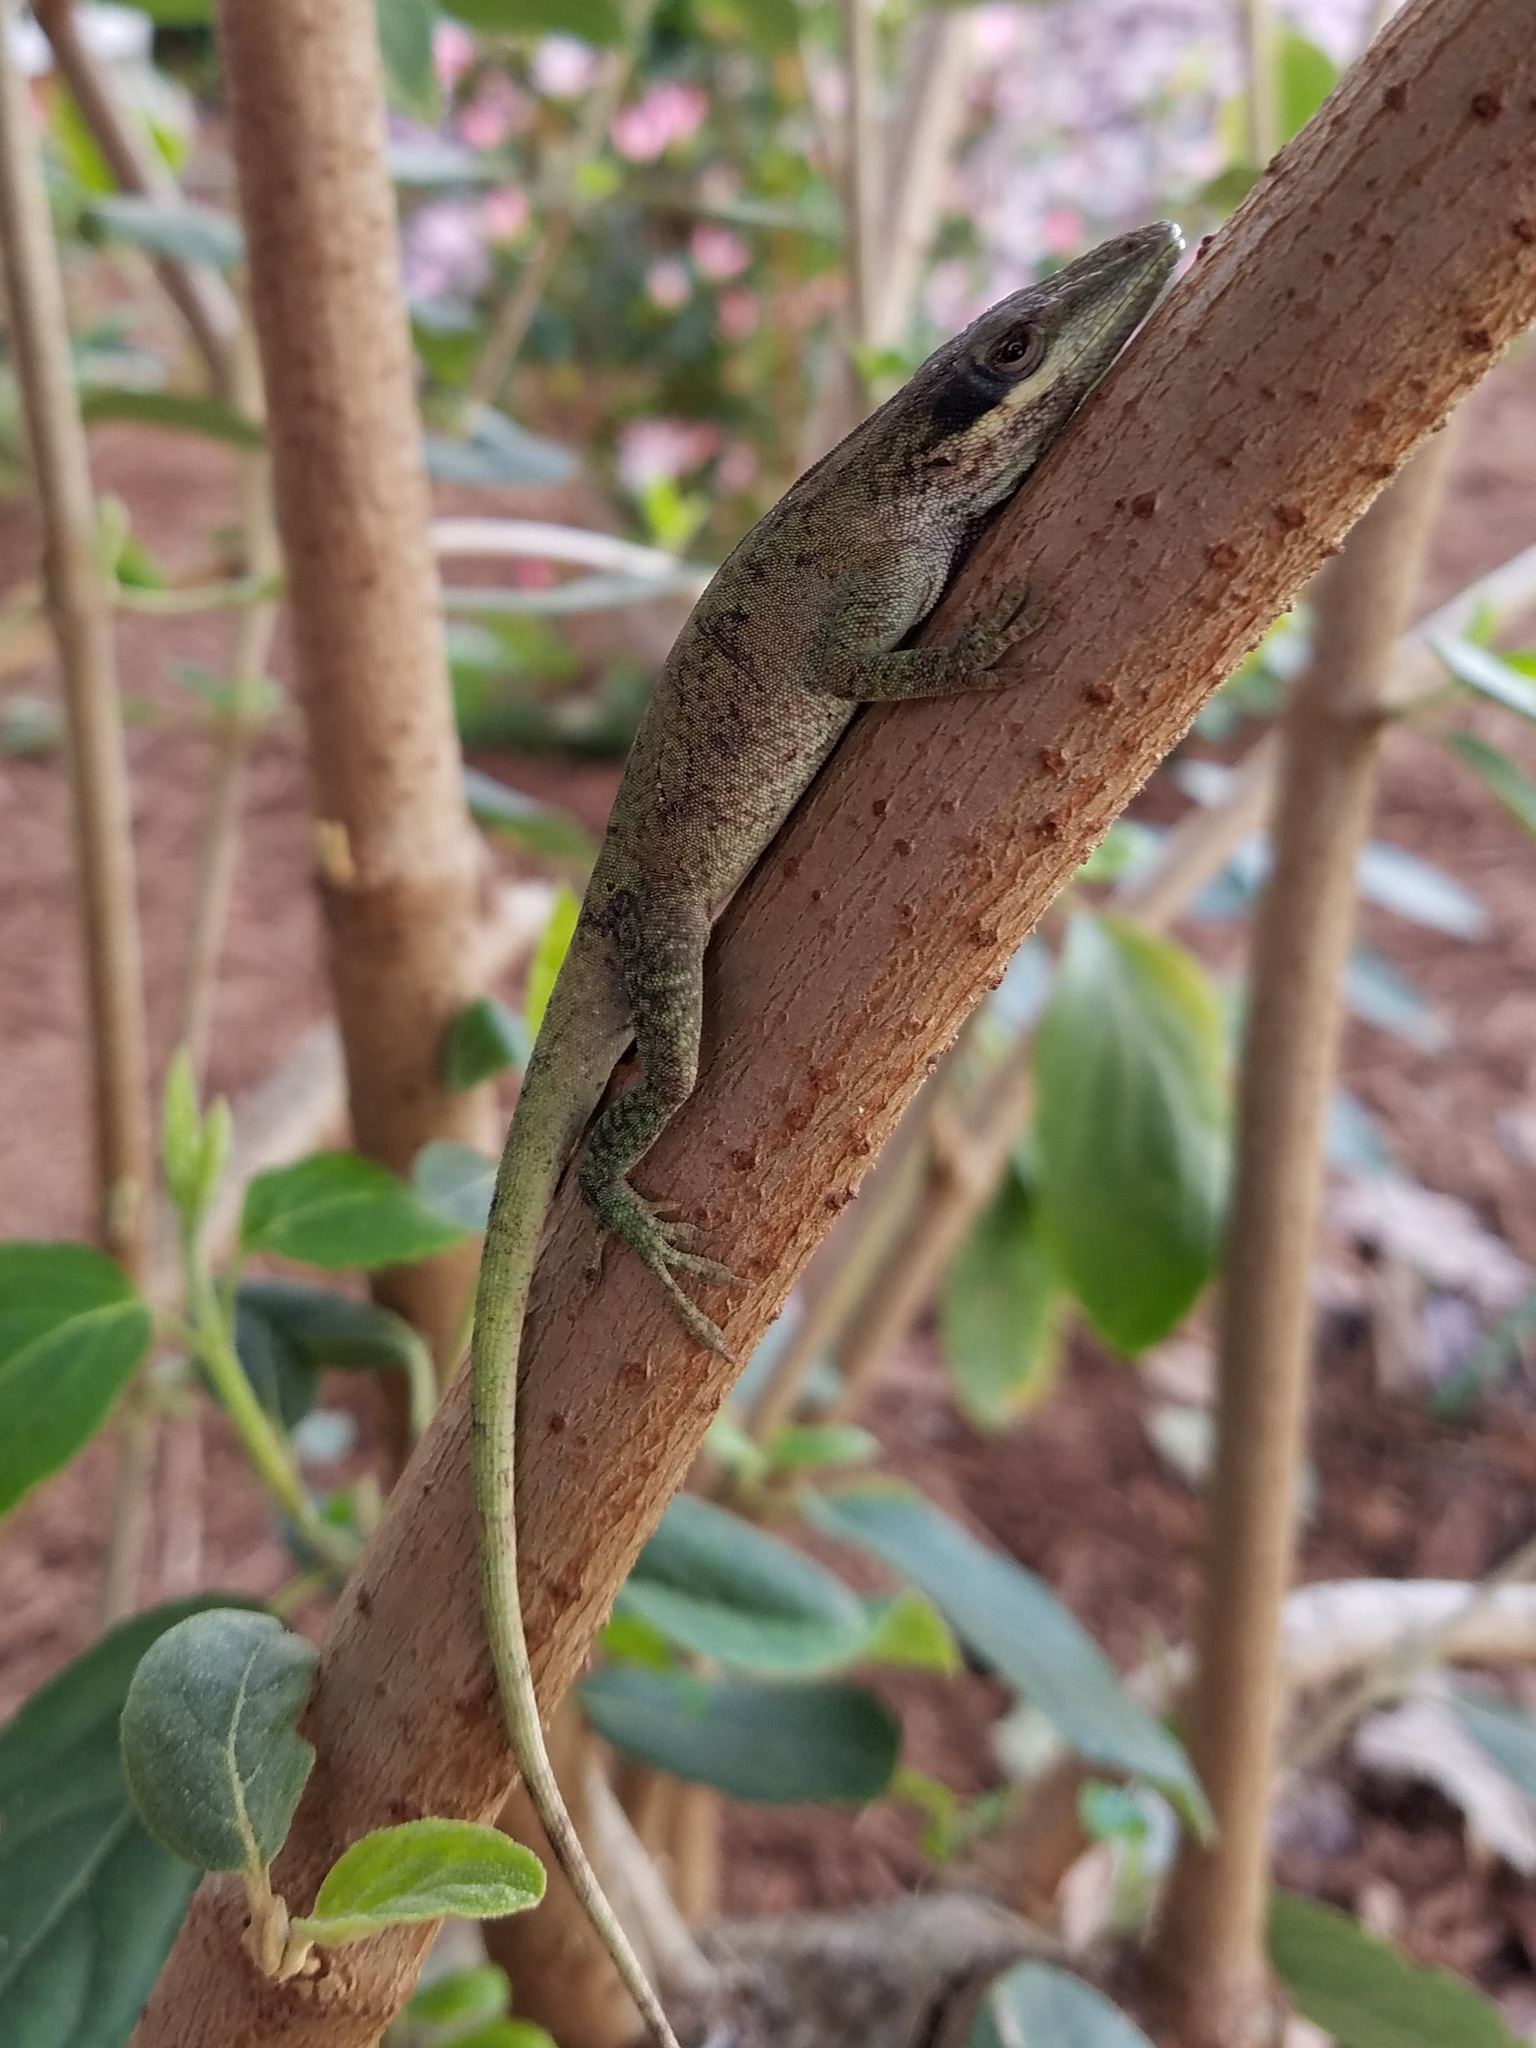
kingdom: Animalia
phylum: Chordata
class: Squamata
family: Dactyloidae
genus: Anolis
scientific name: Anolis carolinensis
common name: Green anole
